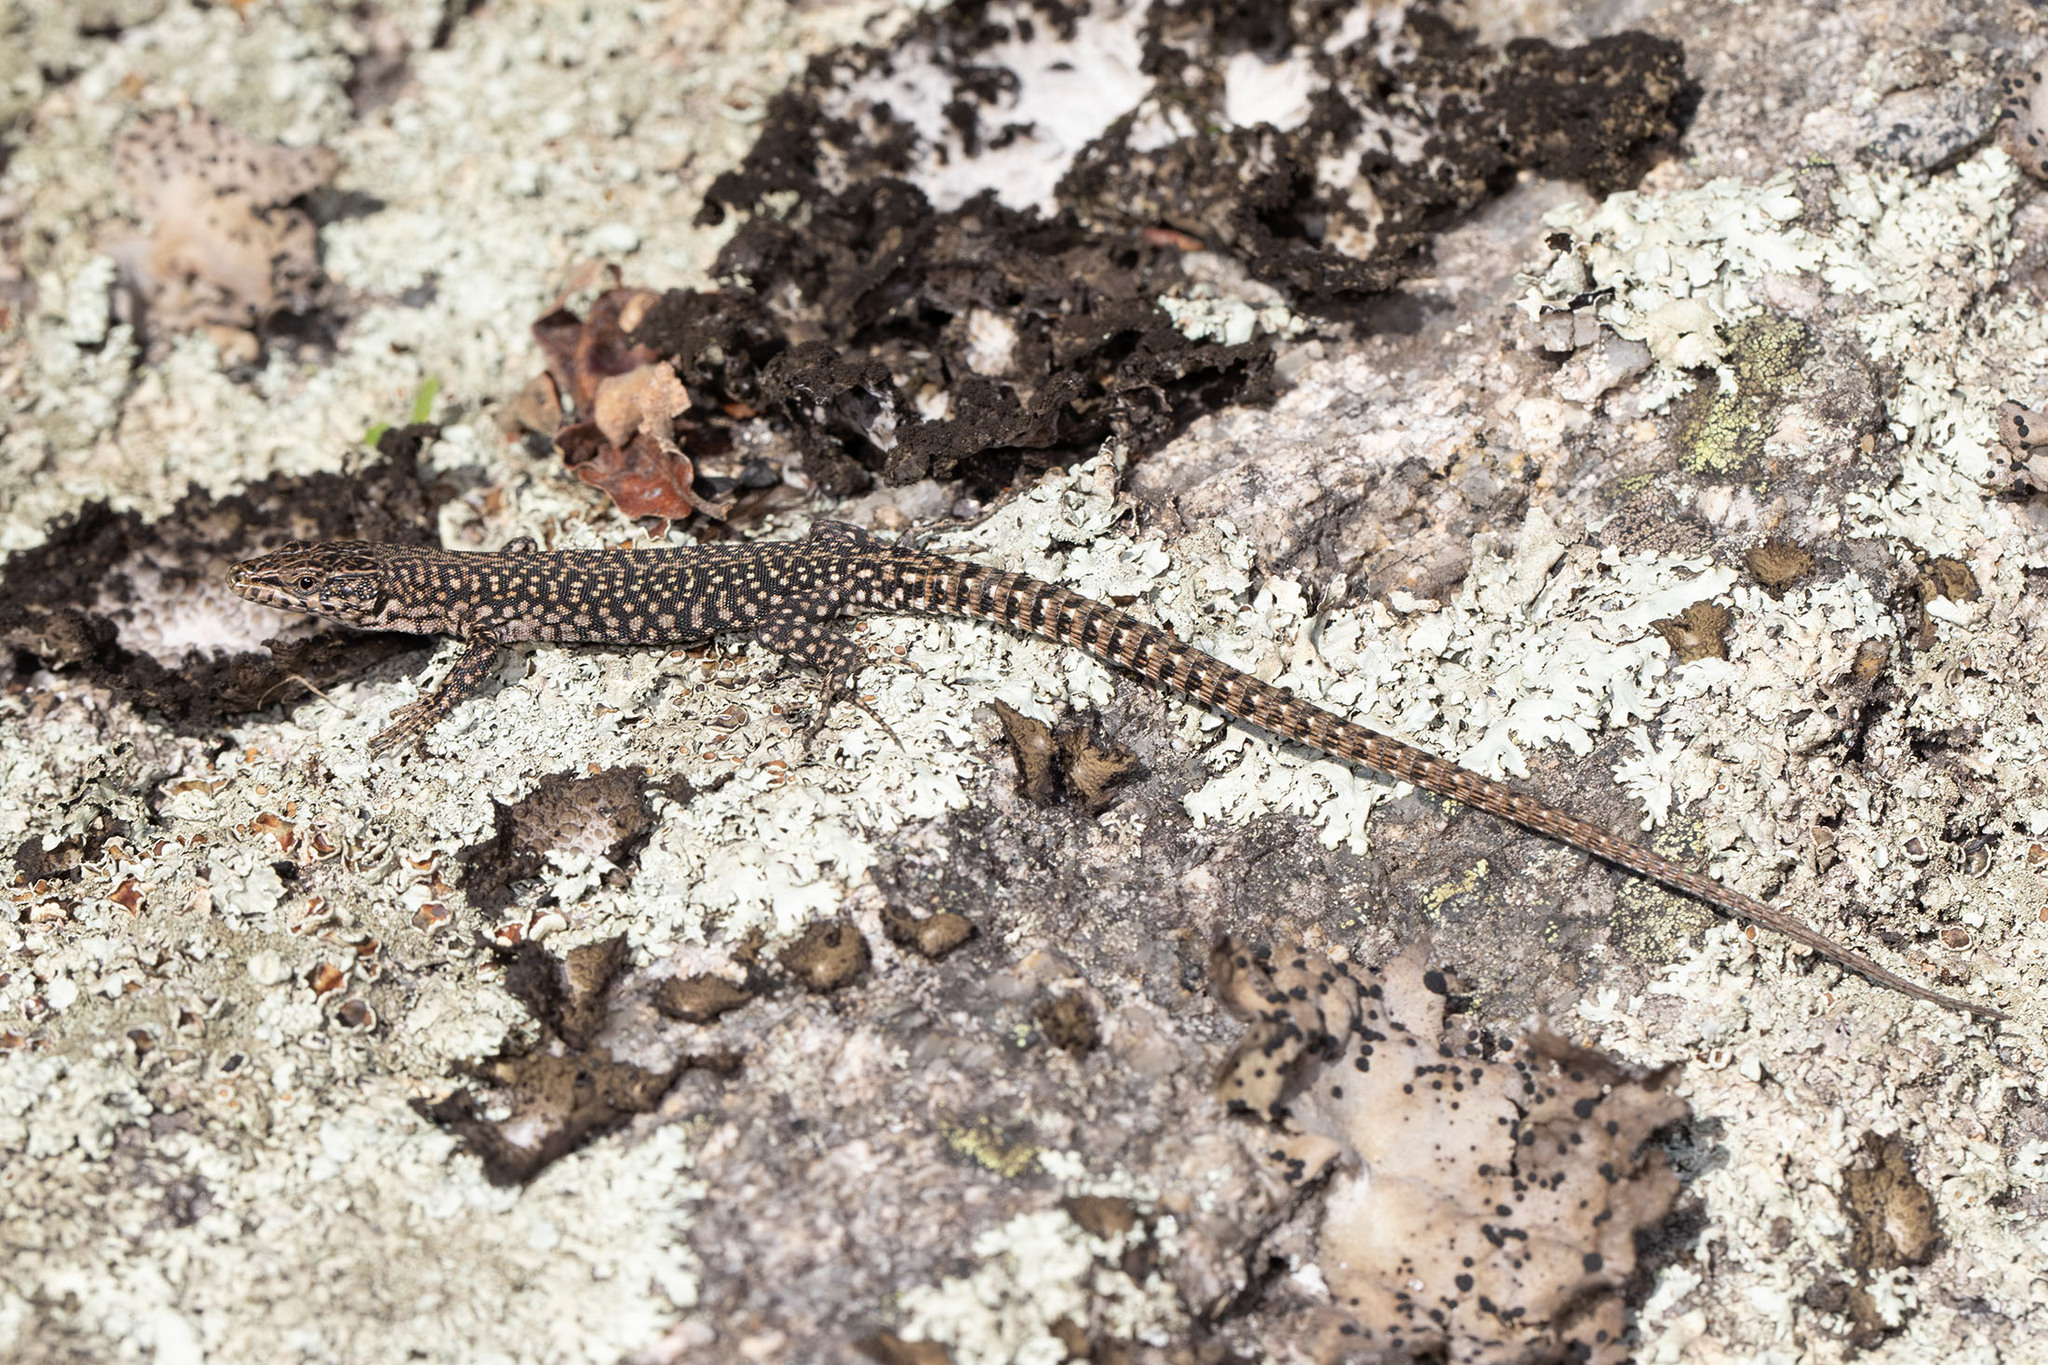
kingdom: Animalia
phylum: Chordata
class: Squamata
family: Lacertidae
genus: Podarcis
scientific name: Podarcis
